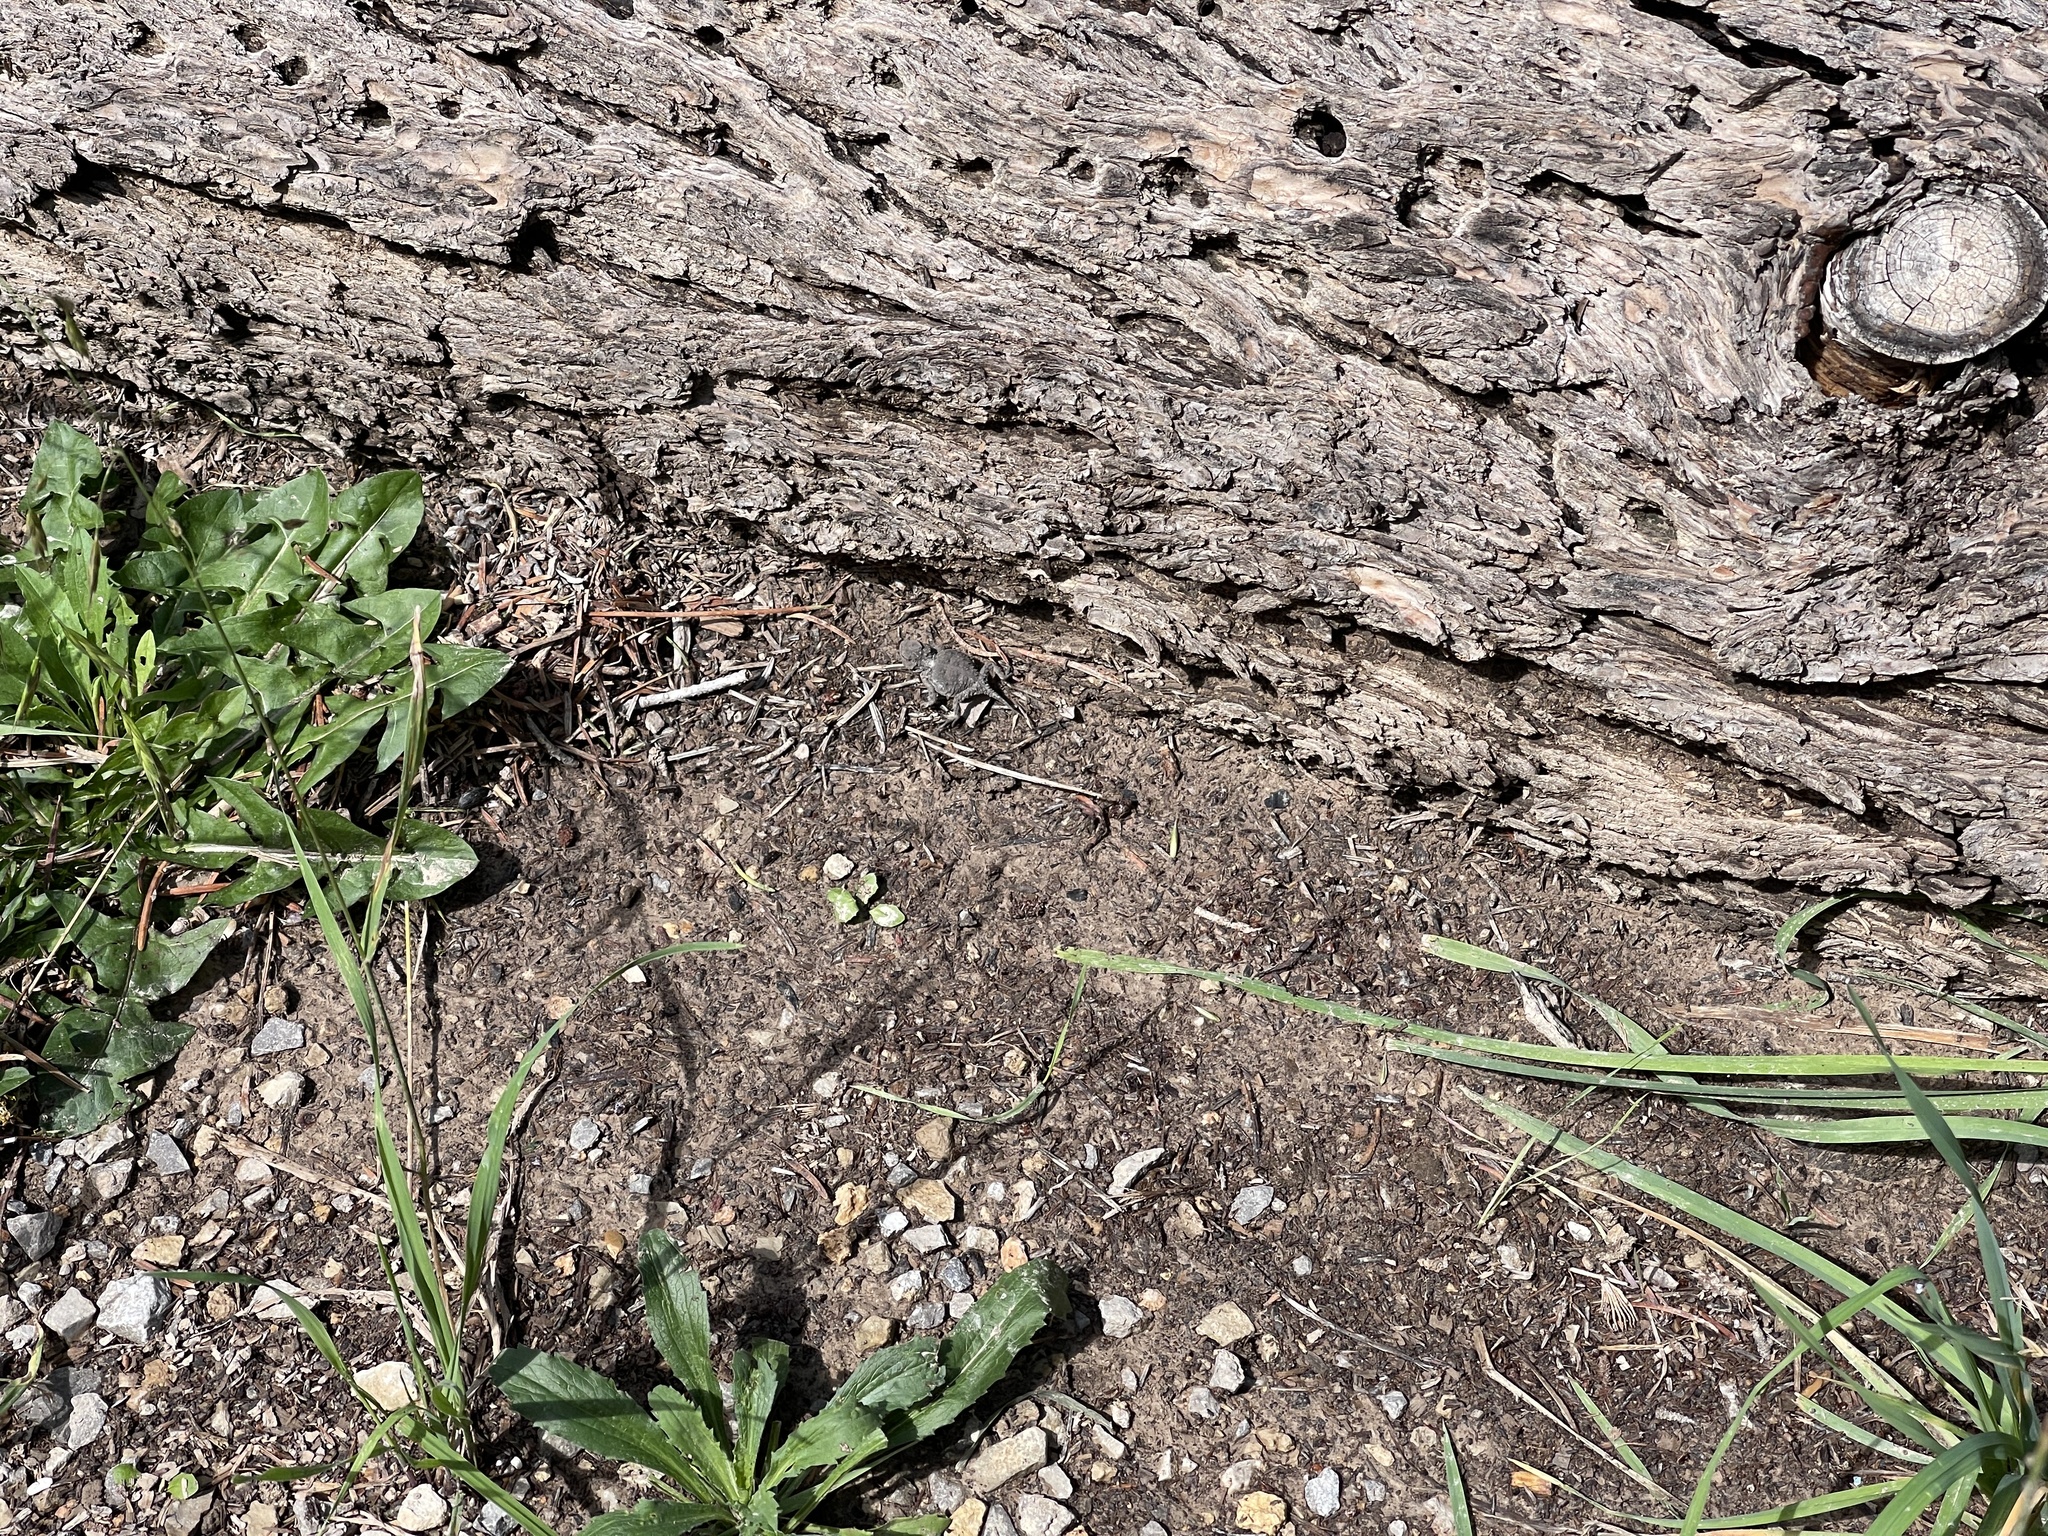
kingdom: Animalia
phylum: Chordata
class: Squamata
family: Phrynosomatidae
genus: Phrynosoma
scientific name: Phrynosoma hernandesi
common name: Greater short-horned lizard
